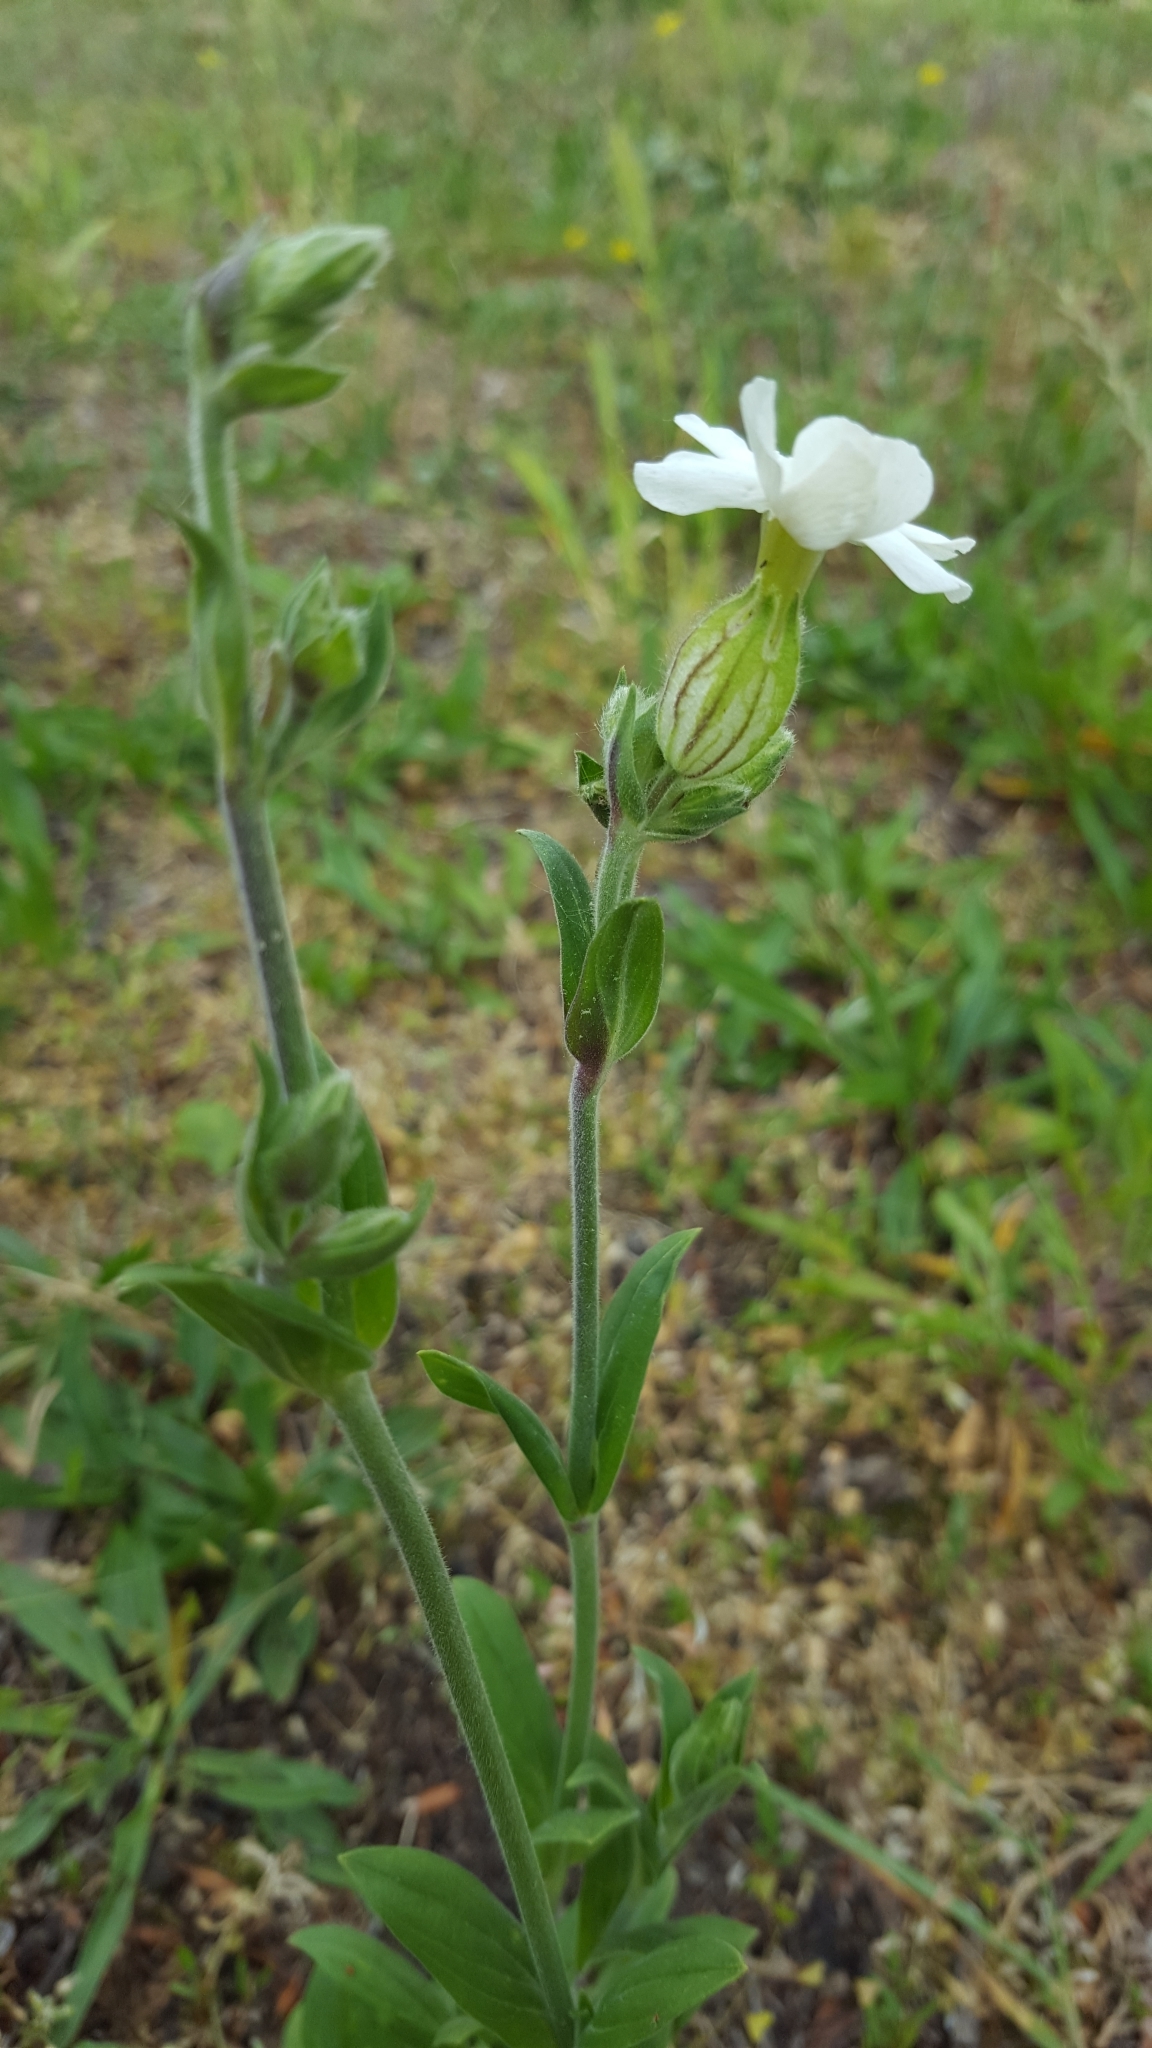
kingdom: Plantae
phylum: Tracheophyta
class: Magnoliopsida
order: Caryophyllales
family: Caryophyllaceae
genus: Silene
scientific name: Silene latifolia
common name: White campion
